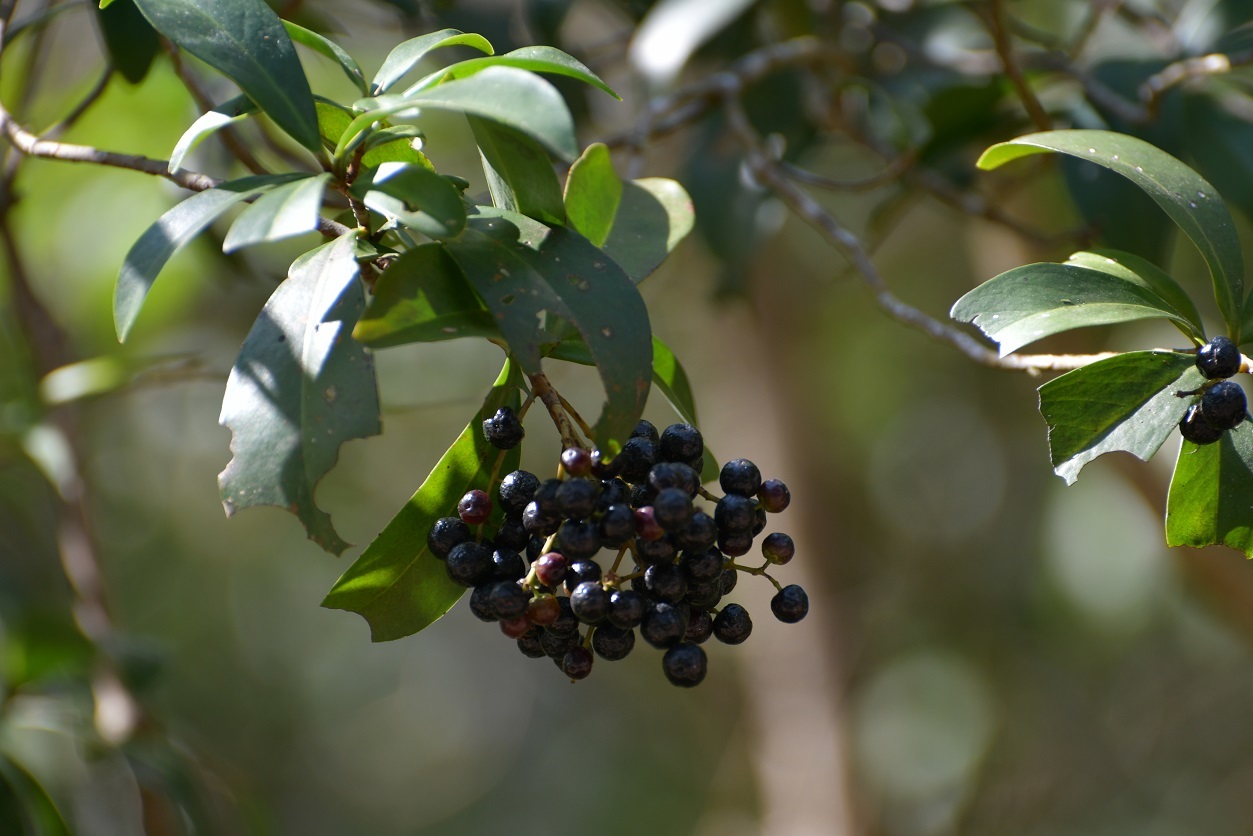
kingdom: Plantae
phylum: Tracheophyta
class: Magnoliopsida
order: Ericales
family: Primulaceae
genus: Ardisia
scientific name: Ardisia escallonioides
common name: Island marlberry
